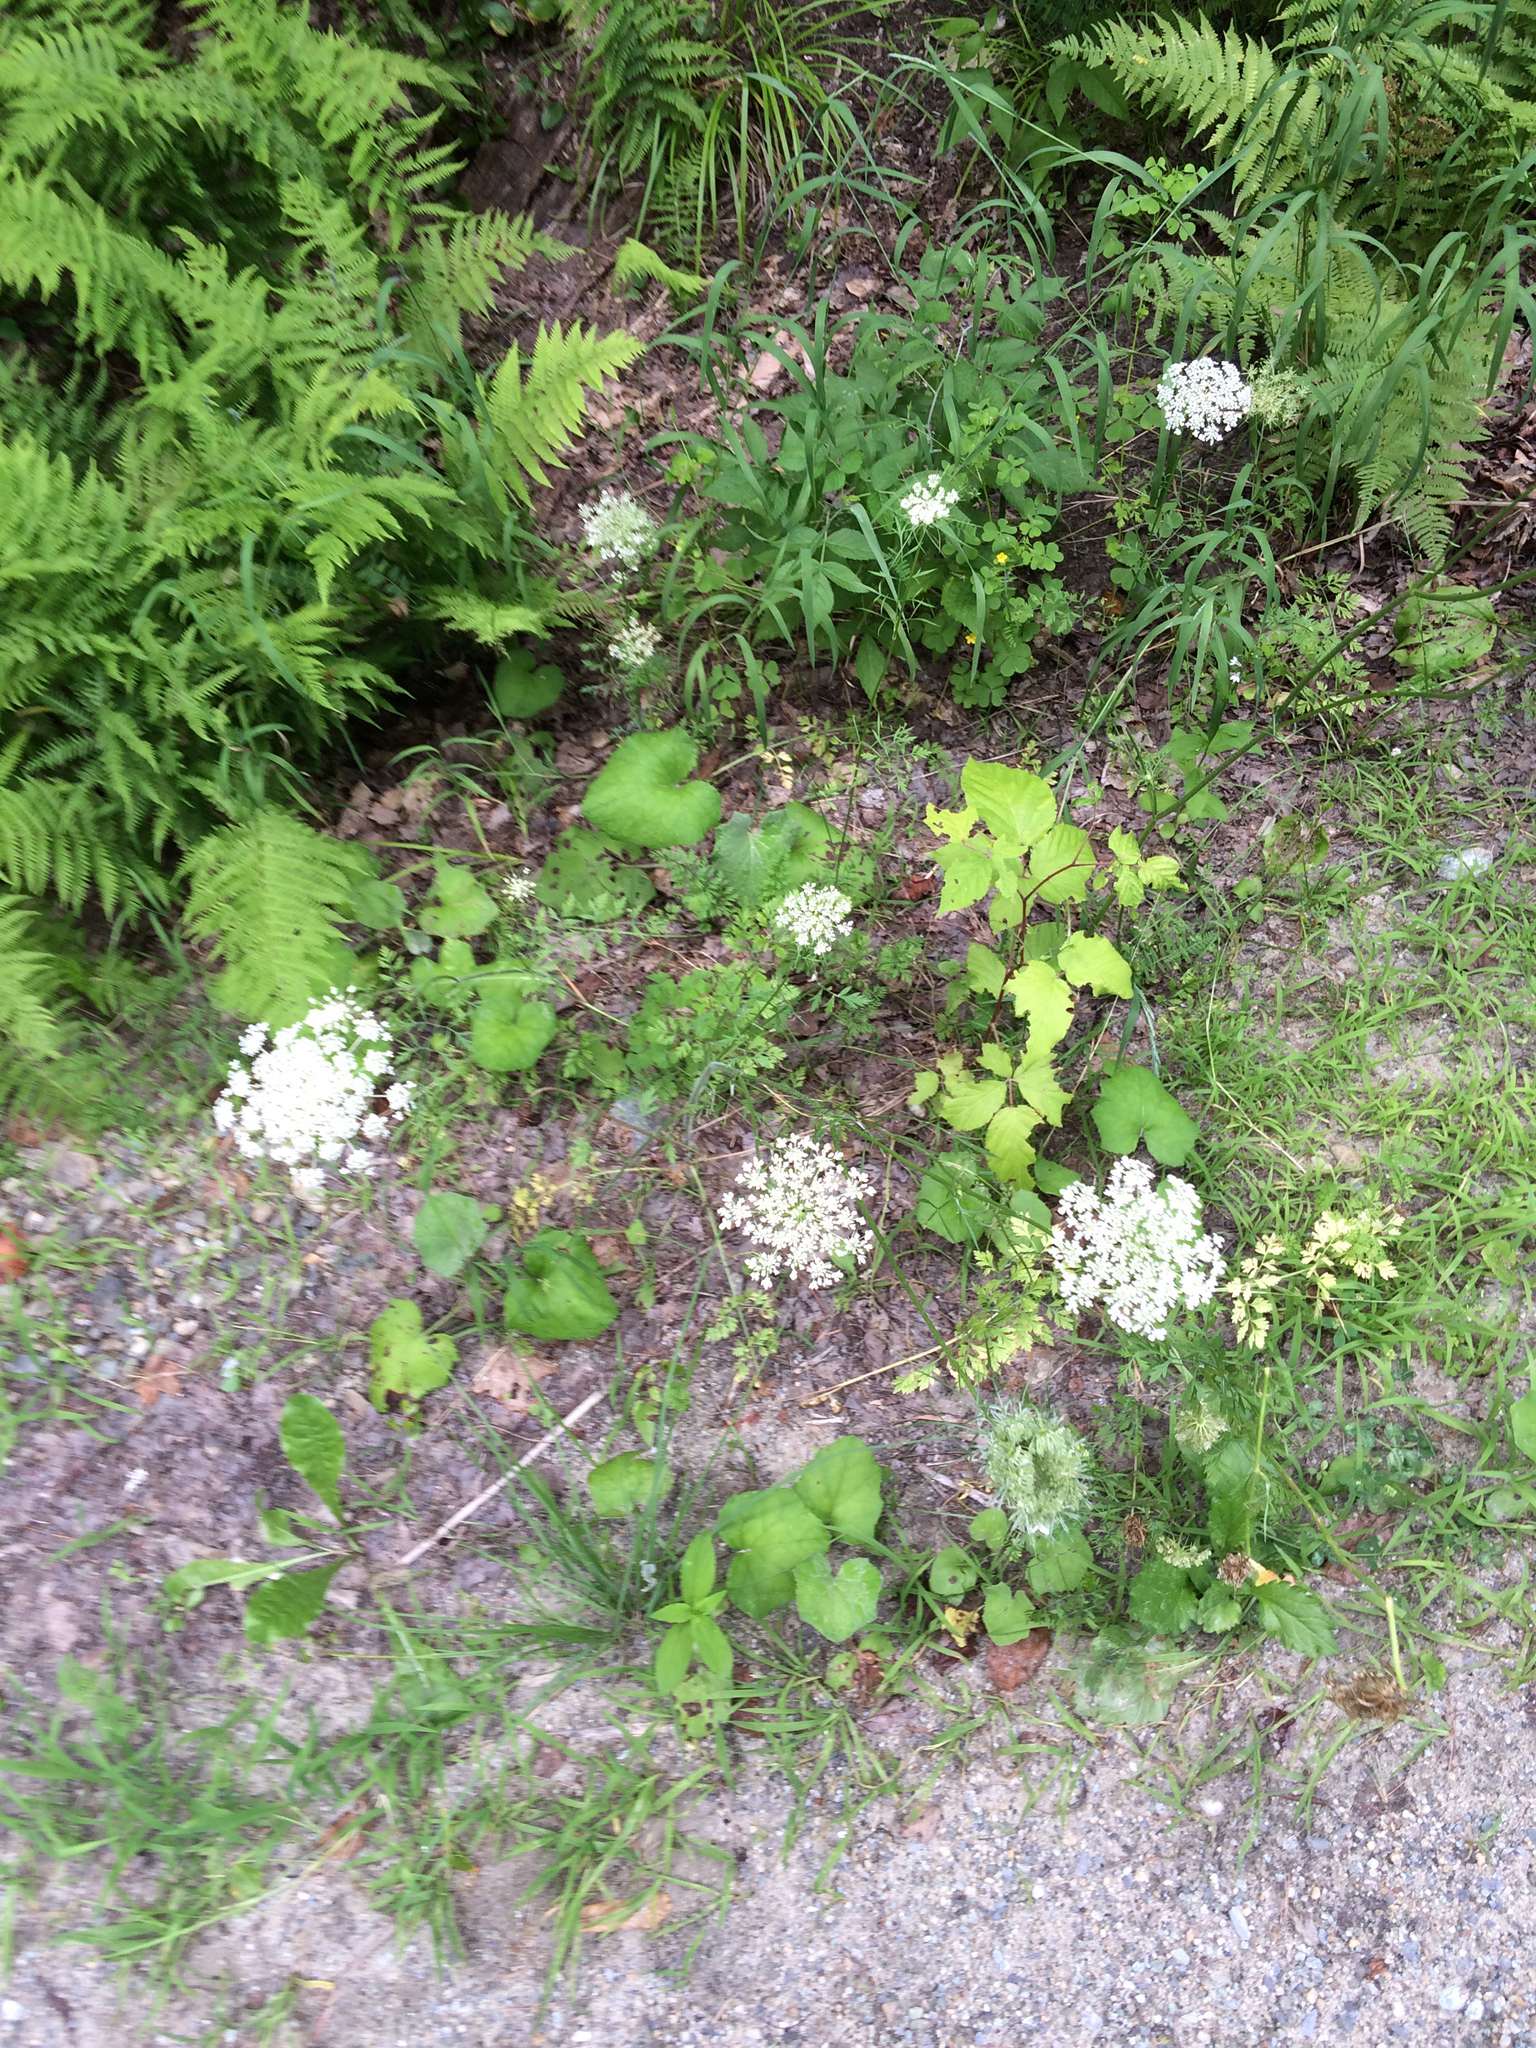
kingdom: Plantae
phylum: Tracheophyta
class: Magnoliopsida
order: Apiales
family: Apiaceae
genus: Daucus
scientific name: Daucus carota
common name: Wild carrot
